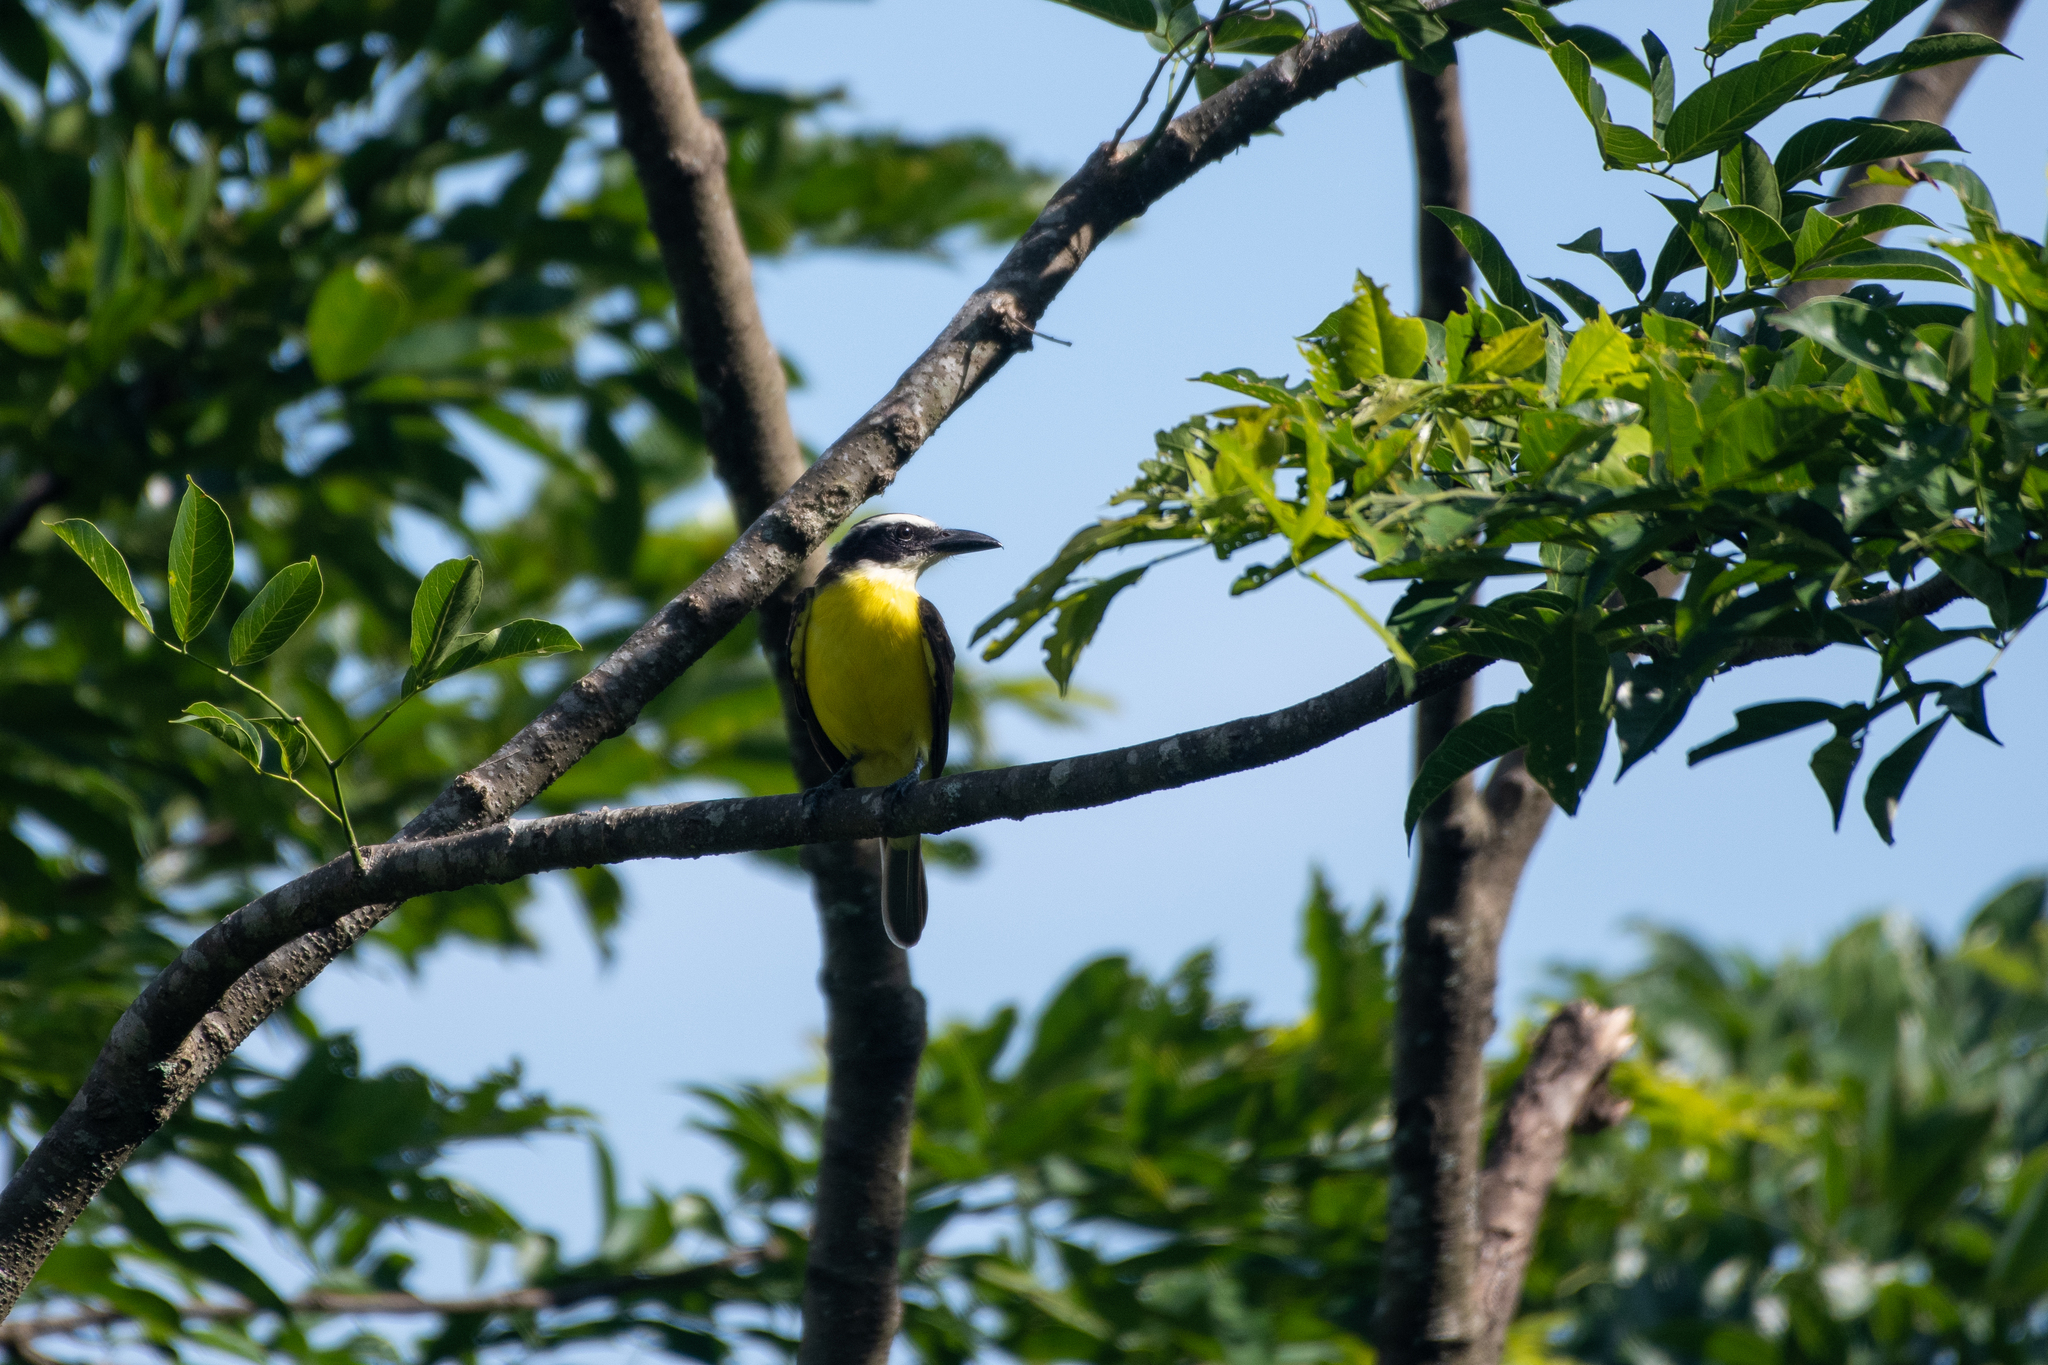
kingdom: Animalia
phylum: Chordata
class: Aves
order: Passeriformes
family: Tyrannidae
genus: Megarynchus
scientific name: Megarynchus pitangua
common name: Boat-billed flycatcher
